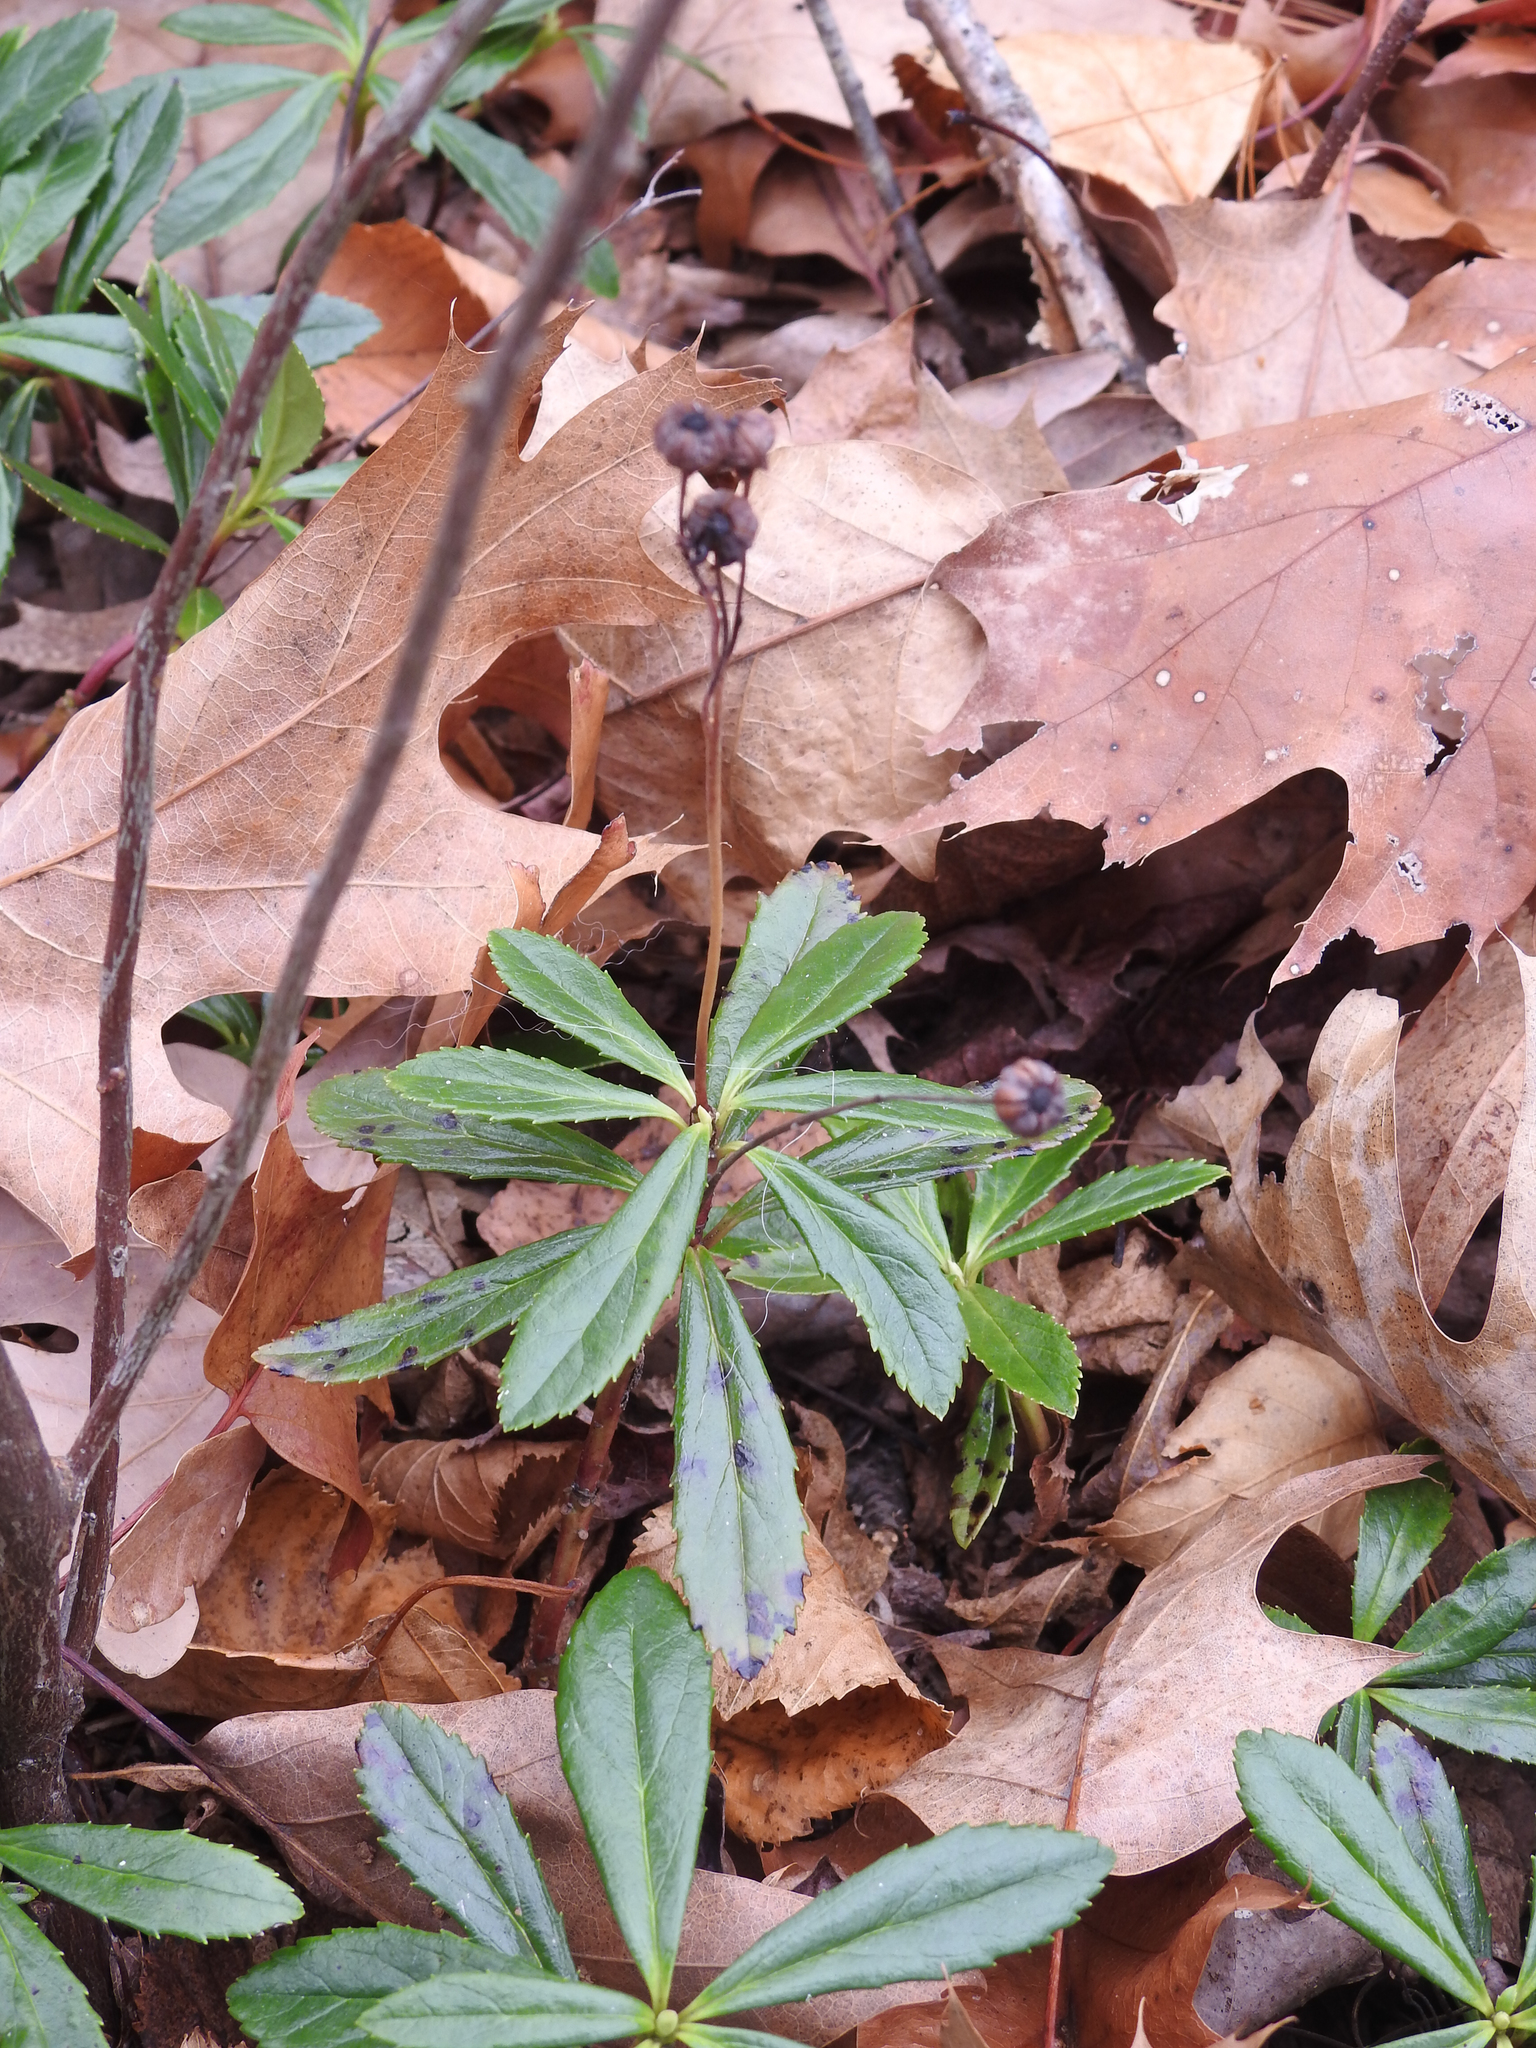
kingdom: Plantae
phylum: Tracheophyta
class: Magnoliopsida
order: Ericales
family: Ericaceae
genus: Chimaphila
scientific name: Chimaphila umbellata
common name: Pipsissewa
